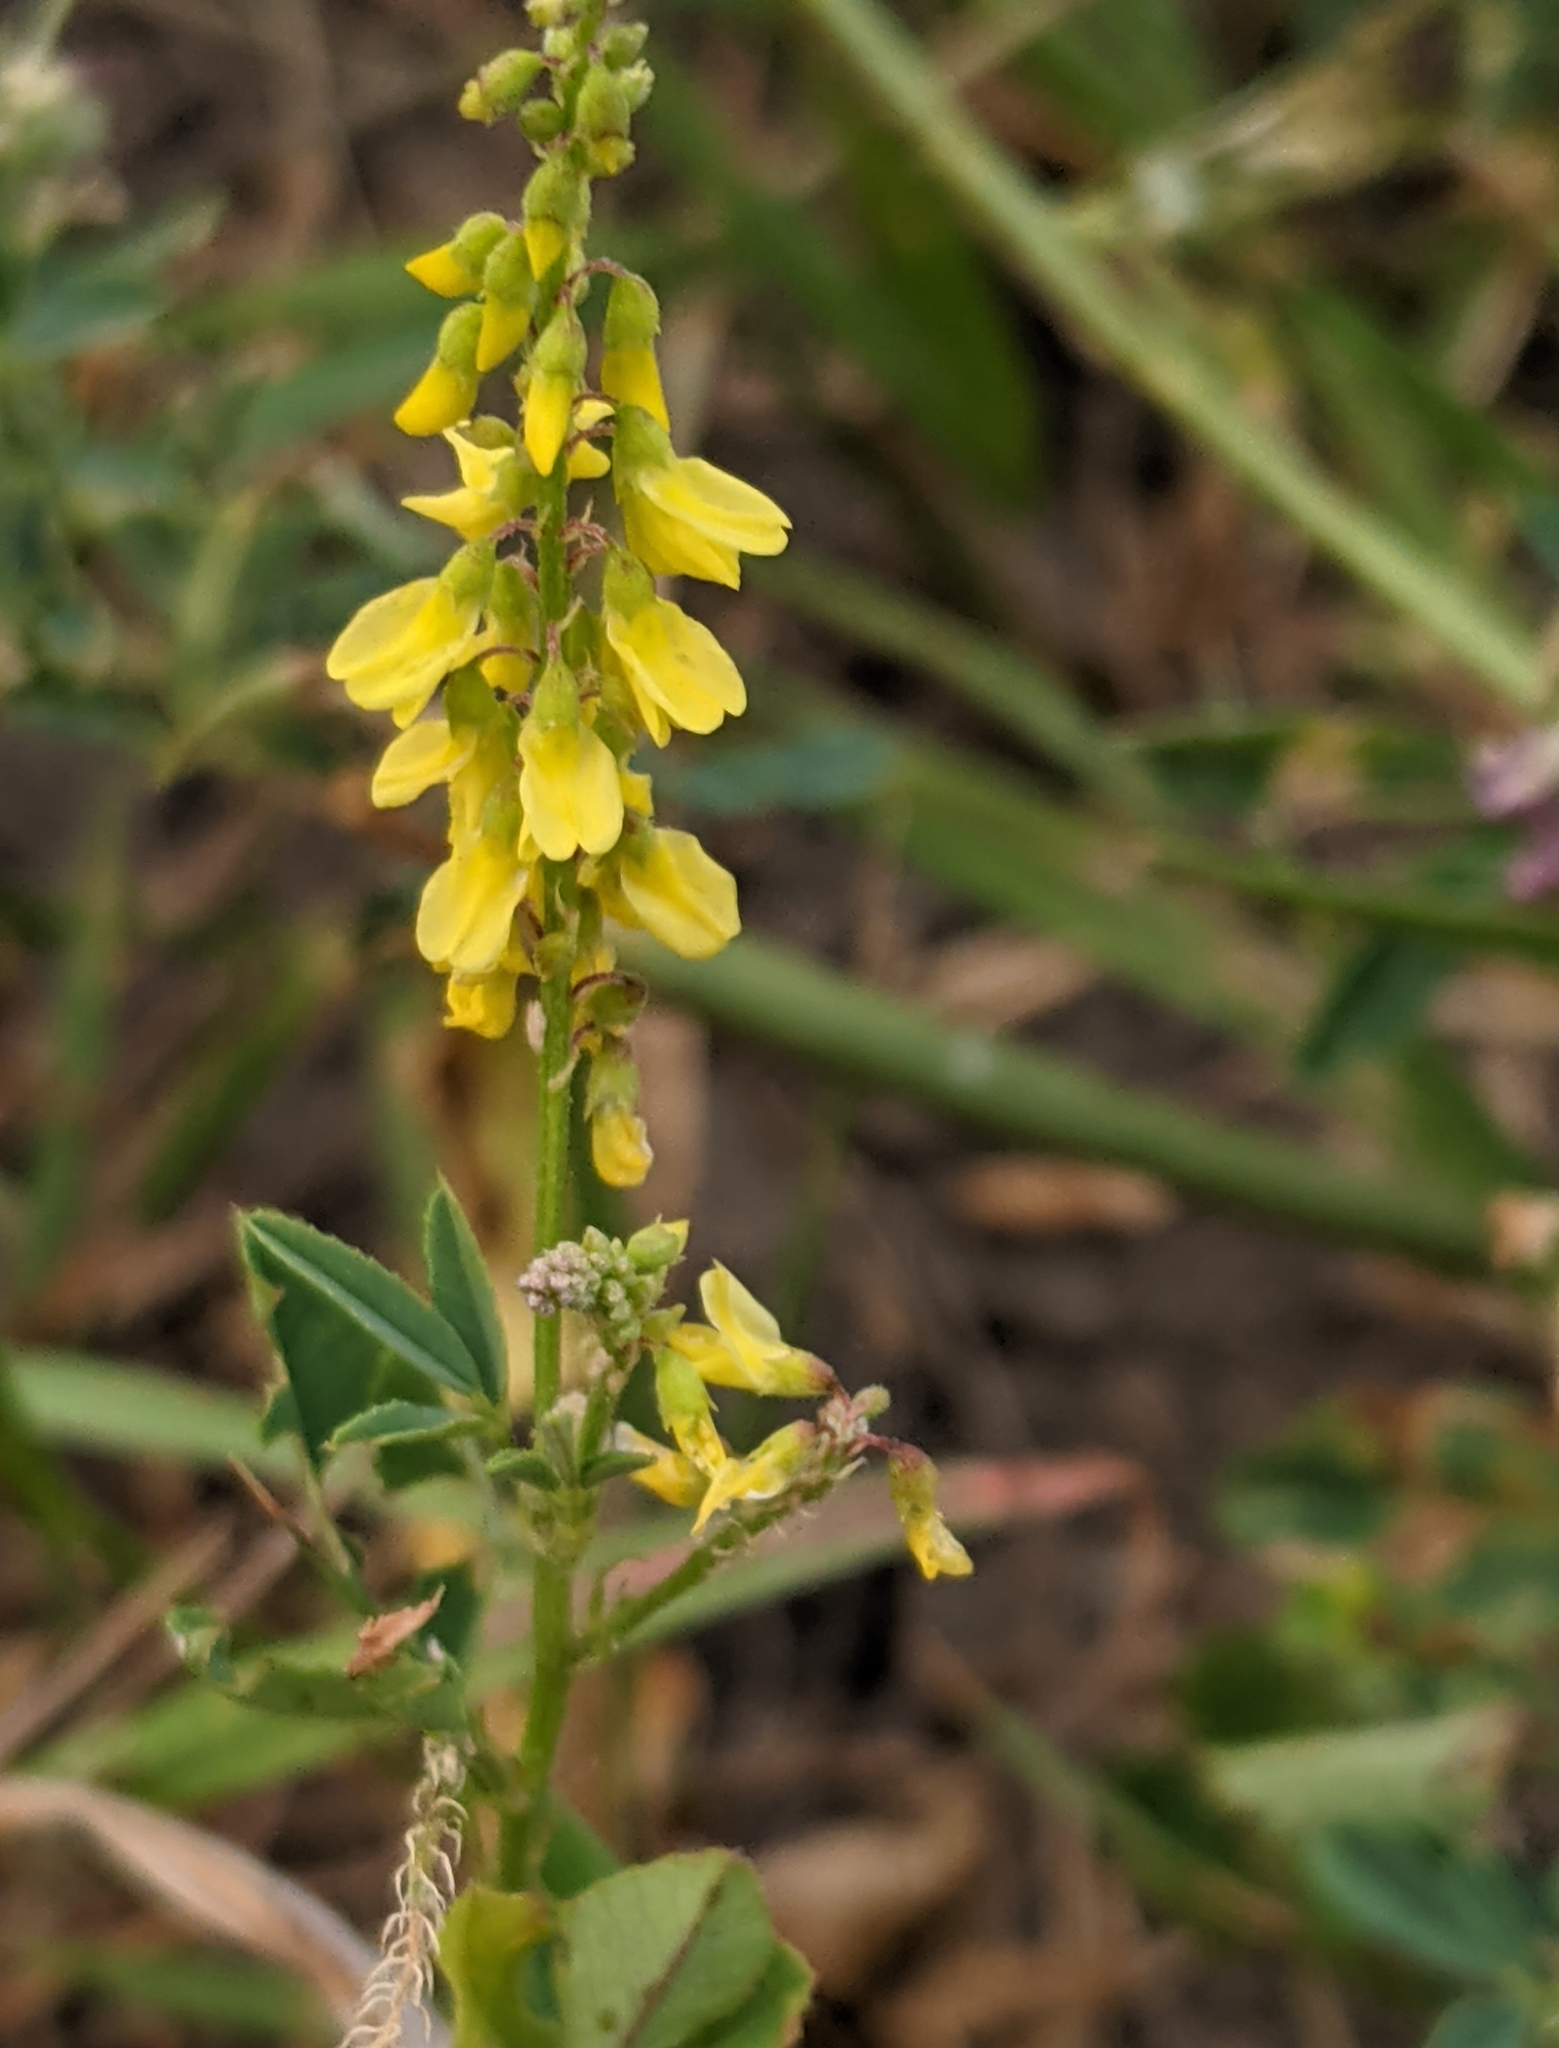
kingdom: Plantae
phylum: Tracheophyta
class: Magnoliopsida
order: Fabales
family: Fabaceae
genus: Melilotus
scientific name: Melilotus officinalis
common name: Sweetclover
